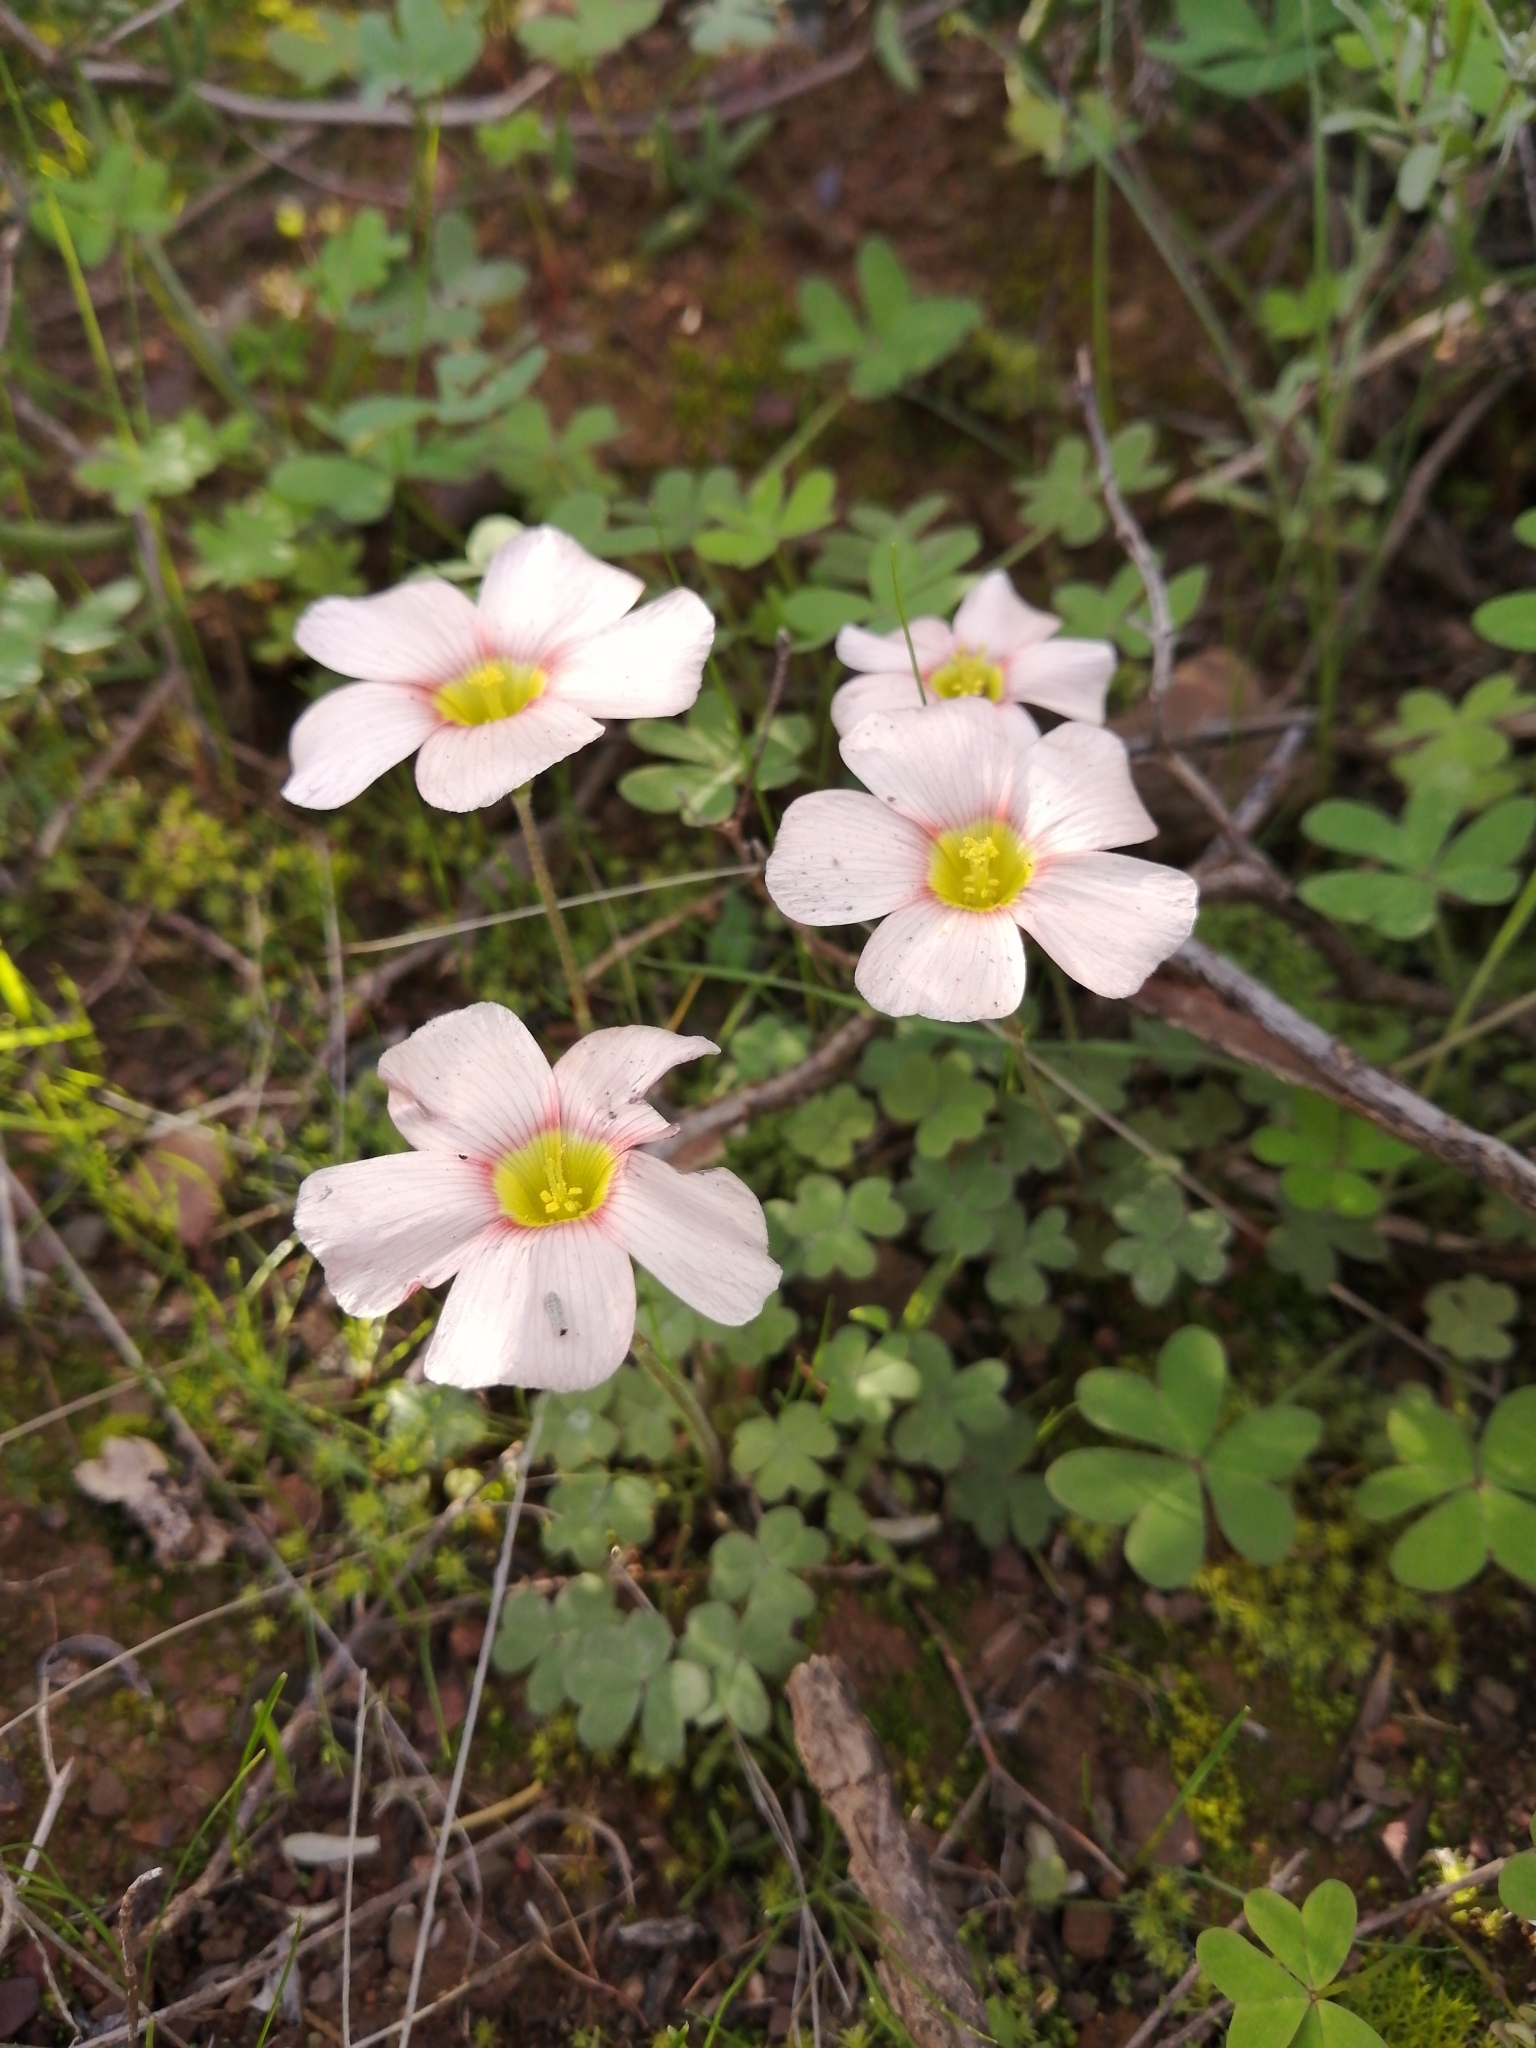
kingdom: Plantae
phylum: Tracheophyta
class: Magnoliopsida
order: Oxalidales
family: Oxalidaceae
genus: Oxalis
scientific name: Oxalis obtusa
